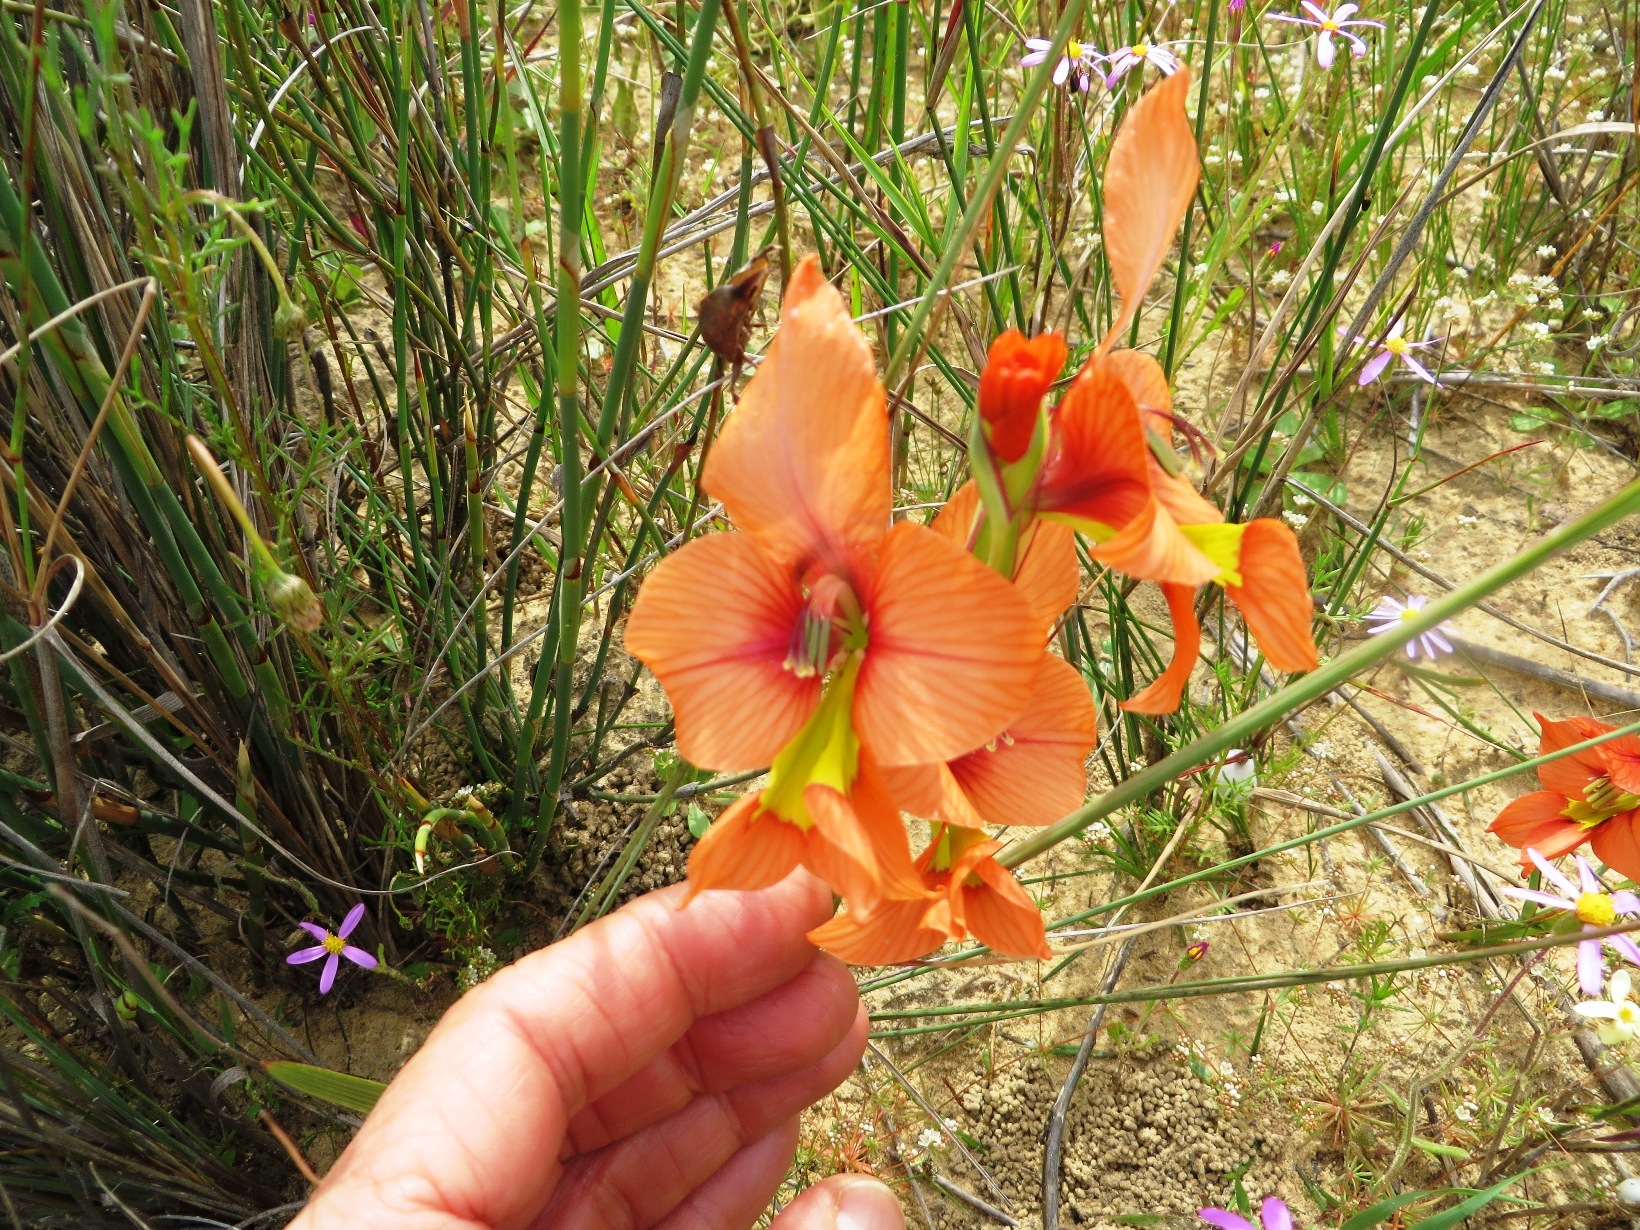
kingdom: Plantae
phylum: Tracheophyta
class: Liliopsida
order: Asparagales
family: Iridaceae
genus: Gladiolus
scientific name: Gladiolus alatus
